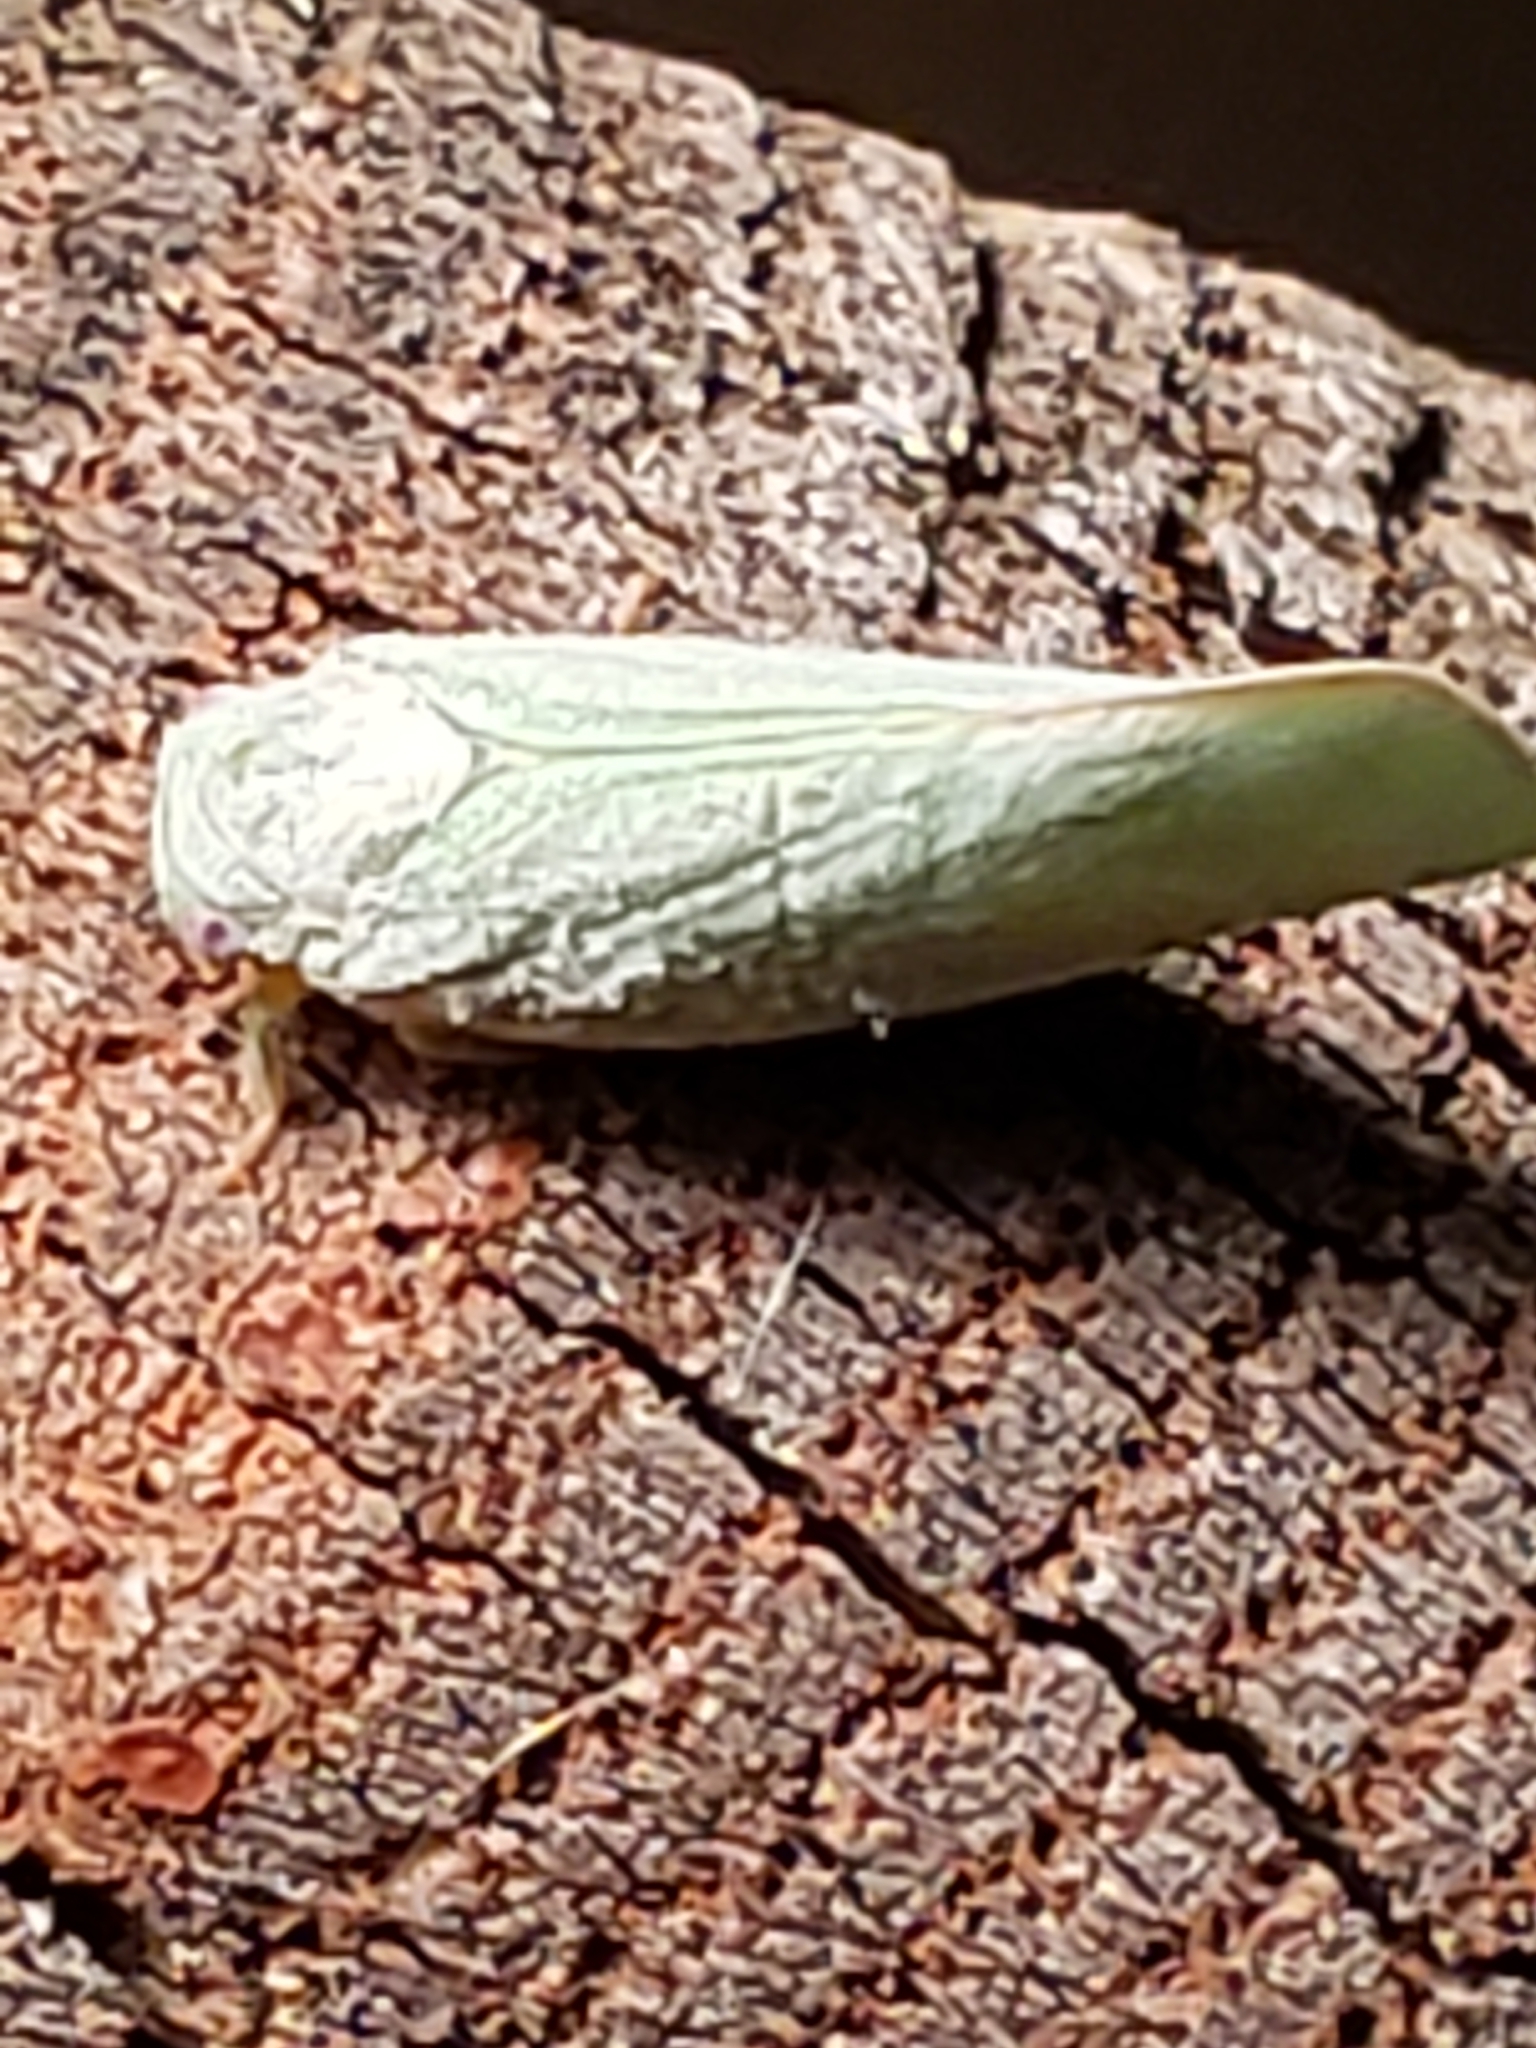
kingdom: Animalia
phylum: Arthropoda
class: Insecta
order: Hemiptera
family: Flatidae
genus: Flatormenis
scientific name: Flatormenis proxima
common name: Northern flatid planthopper
